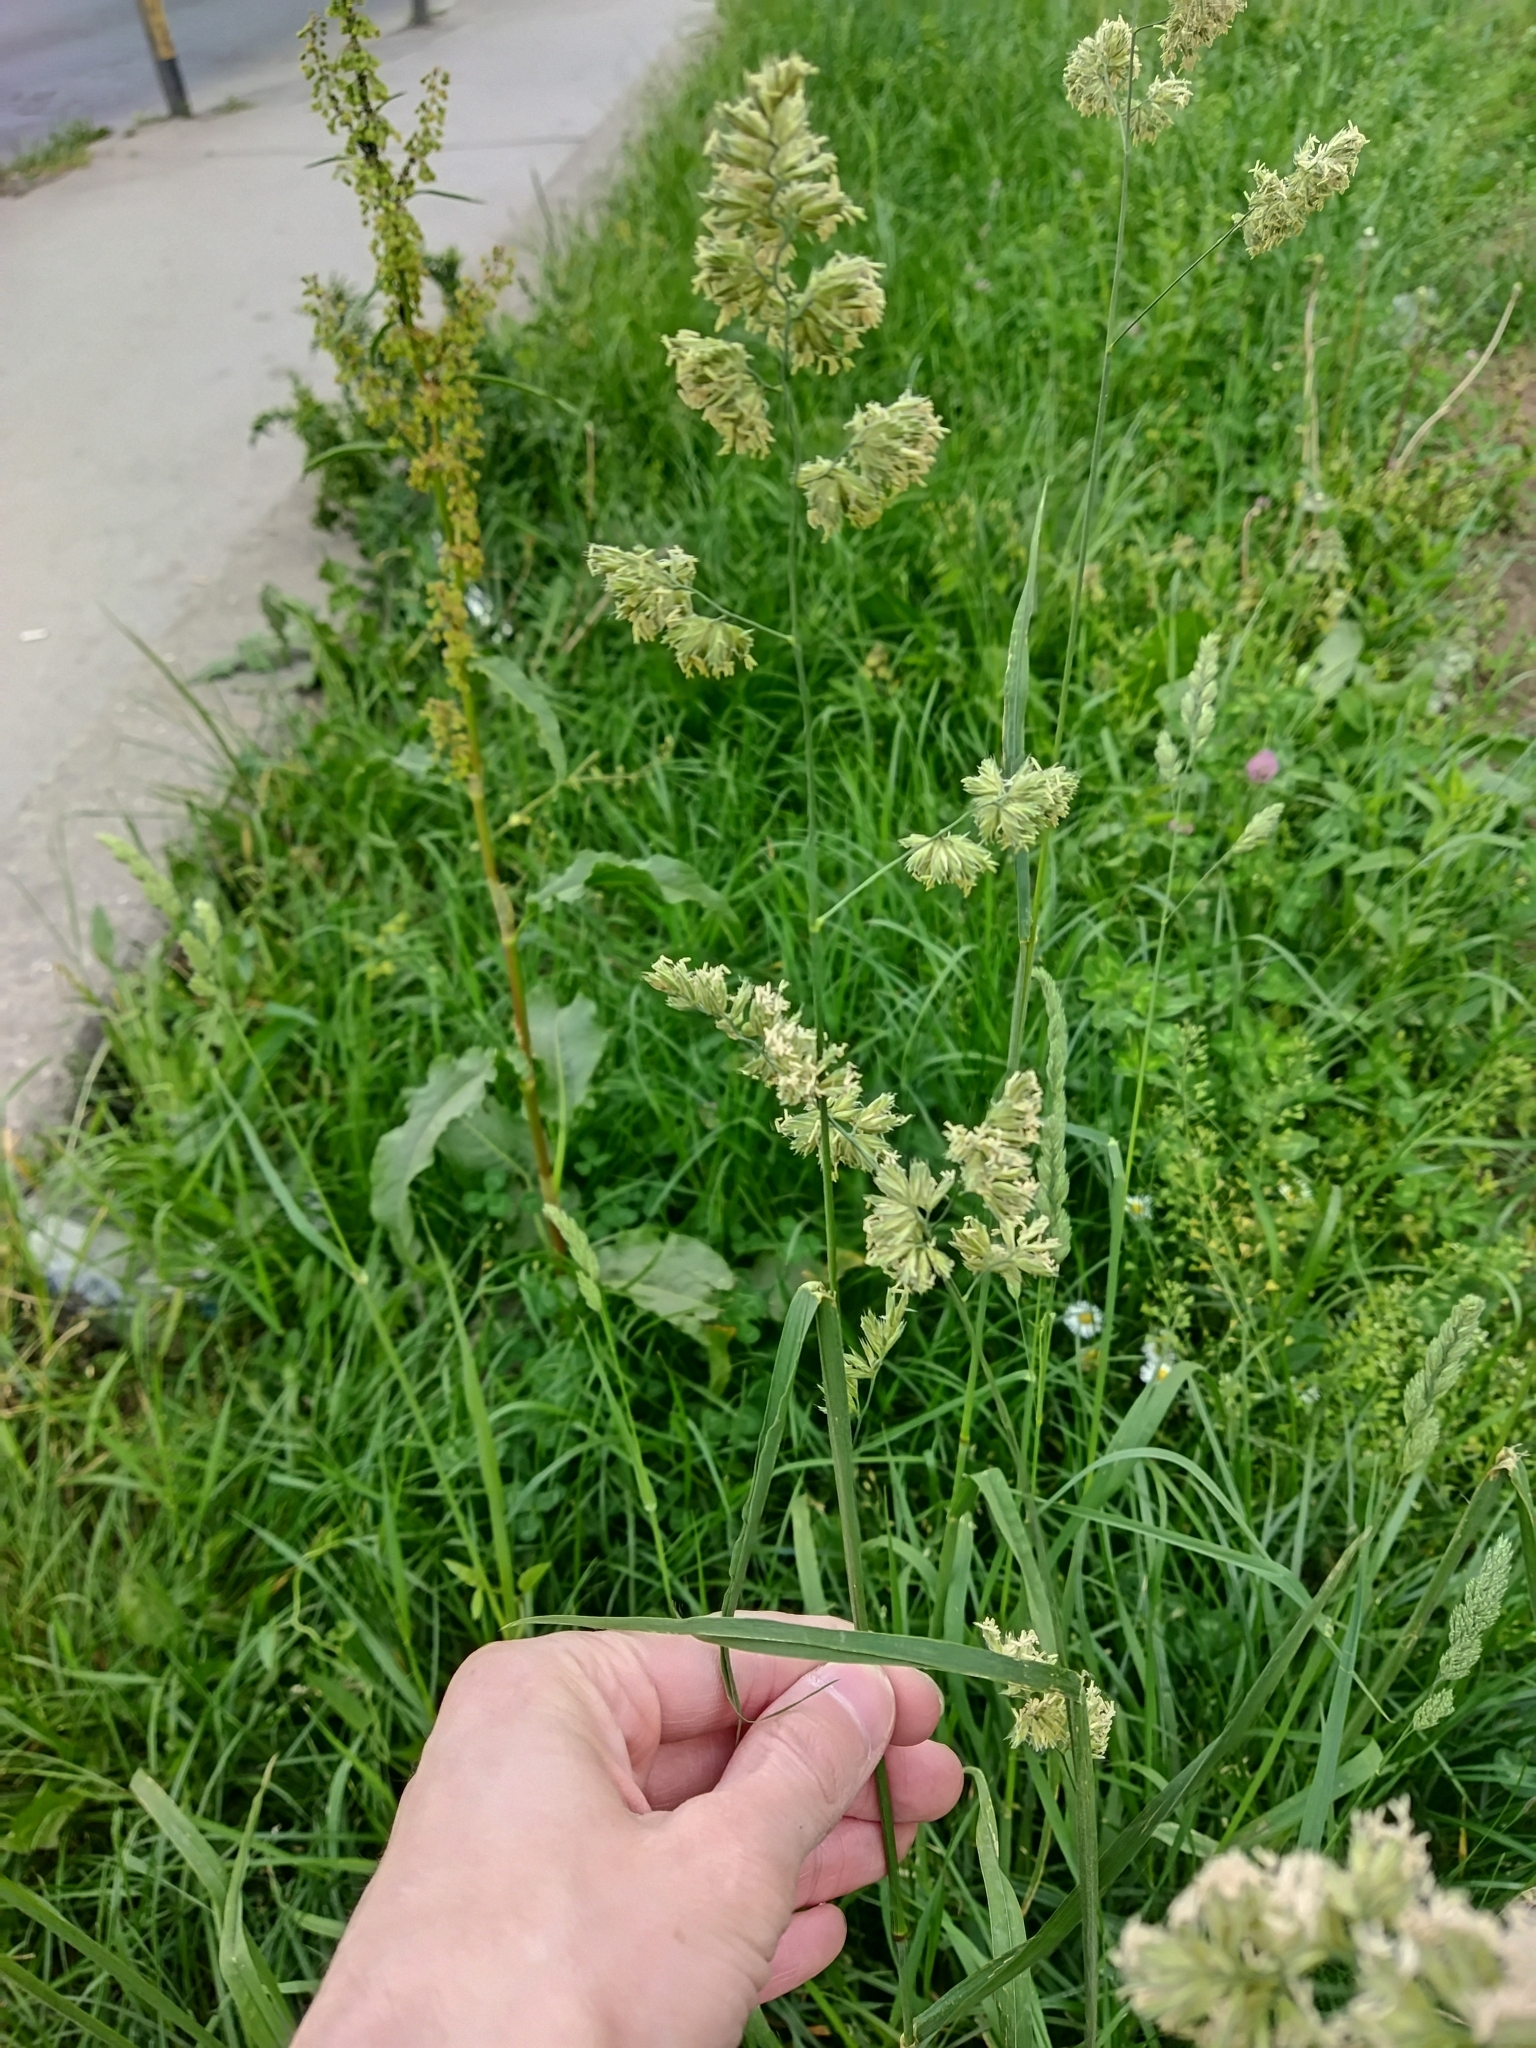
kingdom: Plantae
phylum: Tracheophyta
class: Liliopsida
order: Poales
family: Poaceae
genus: Dactylis
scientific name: Dactylis glomerata
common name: Orchardgrass
